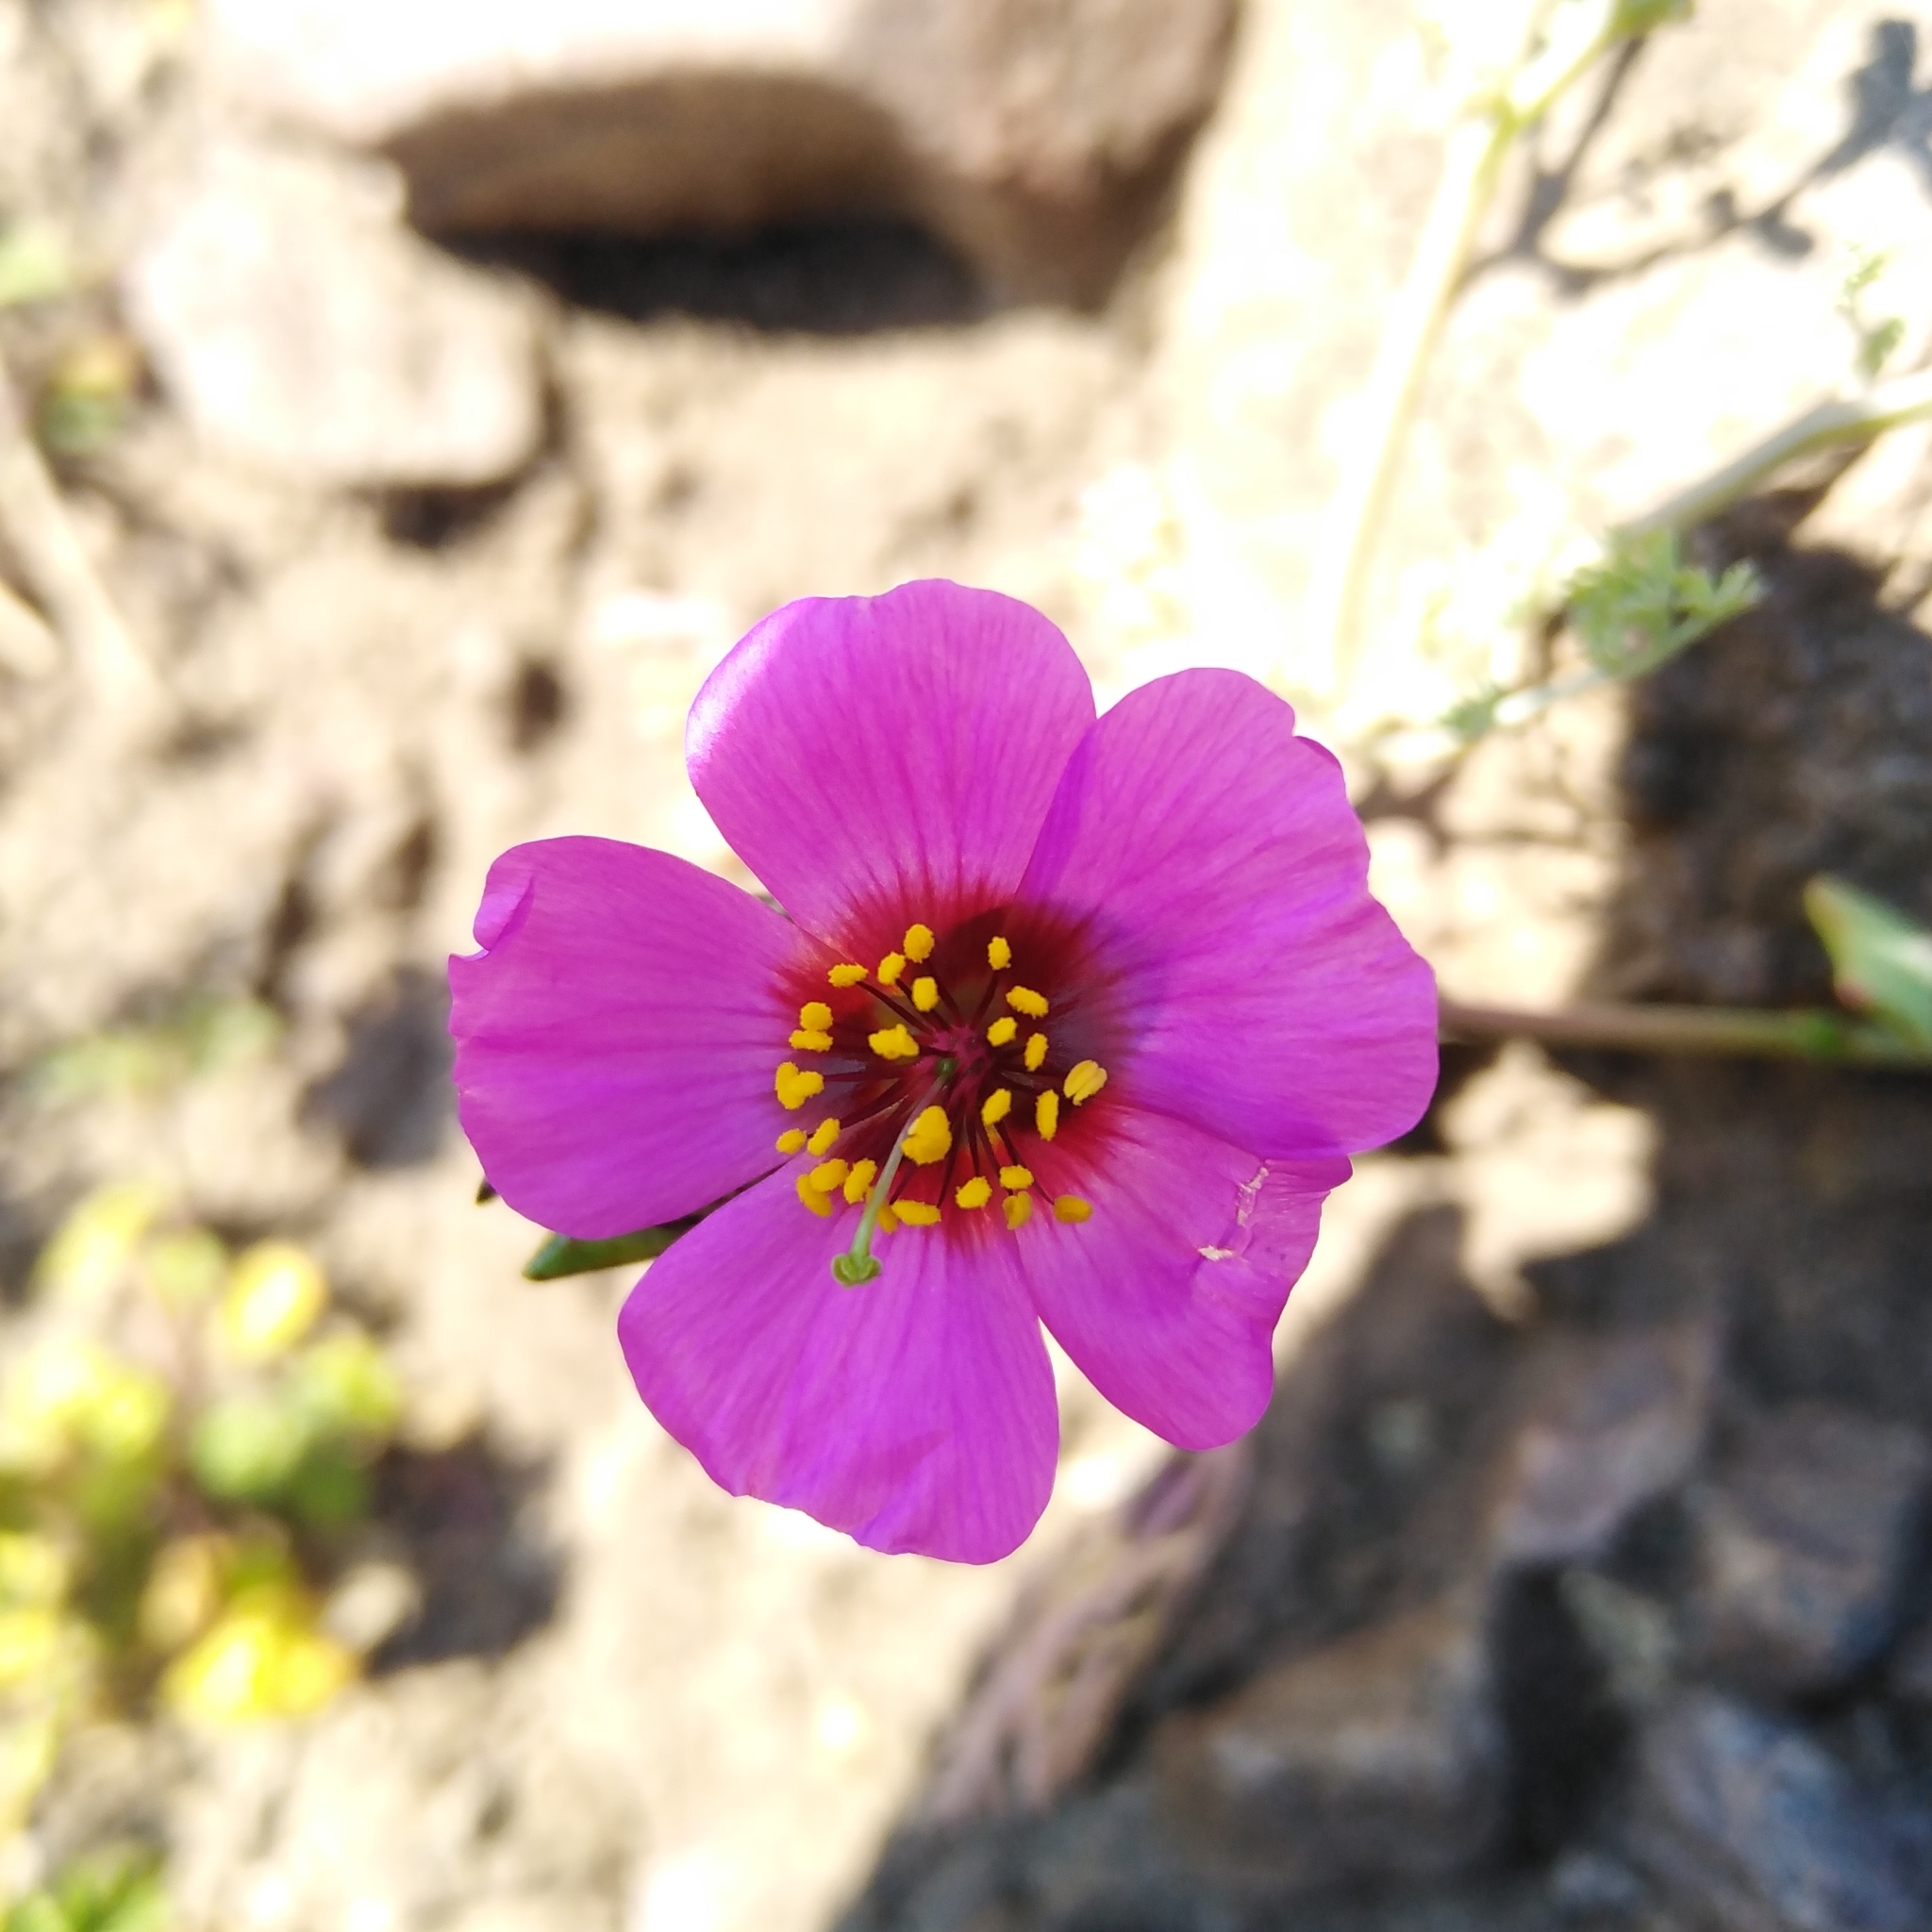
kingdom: Plantae
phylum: Tracheophyta
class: Magnoliopsida
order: Caryophyllales
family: Montiaceae
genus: Cistanthe
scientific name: Cistanthe grandiflora
